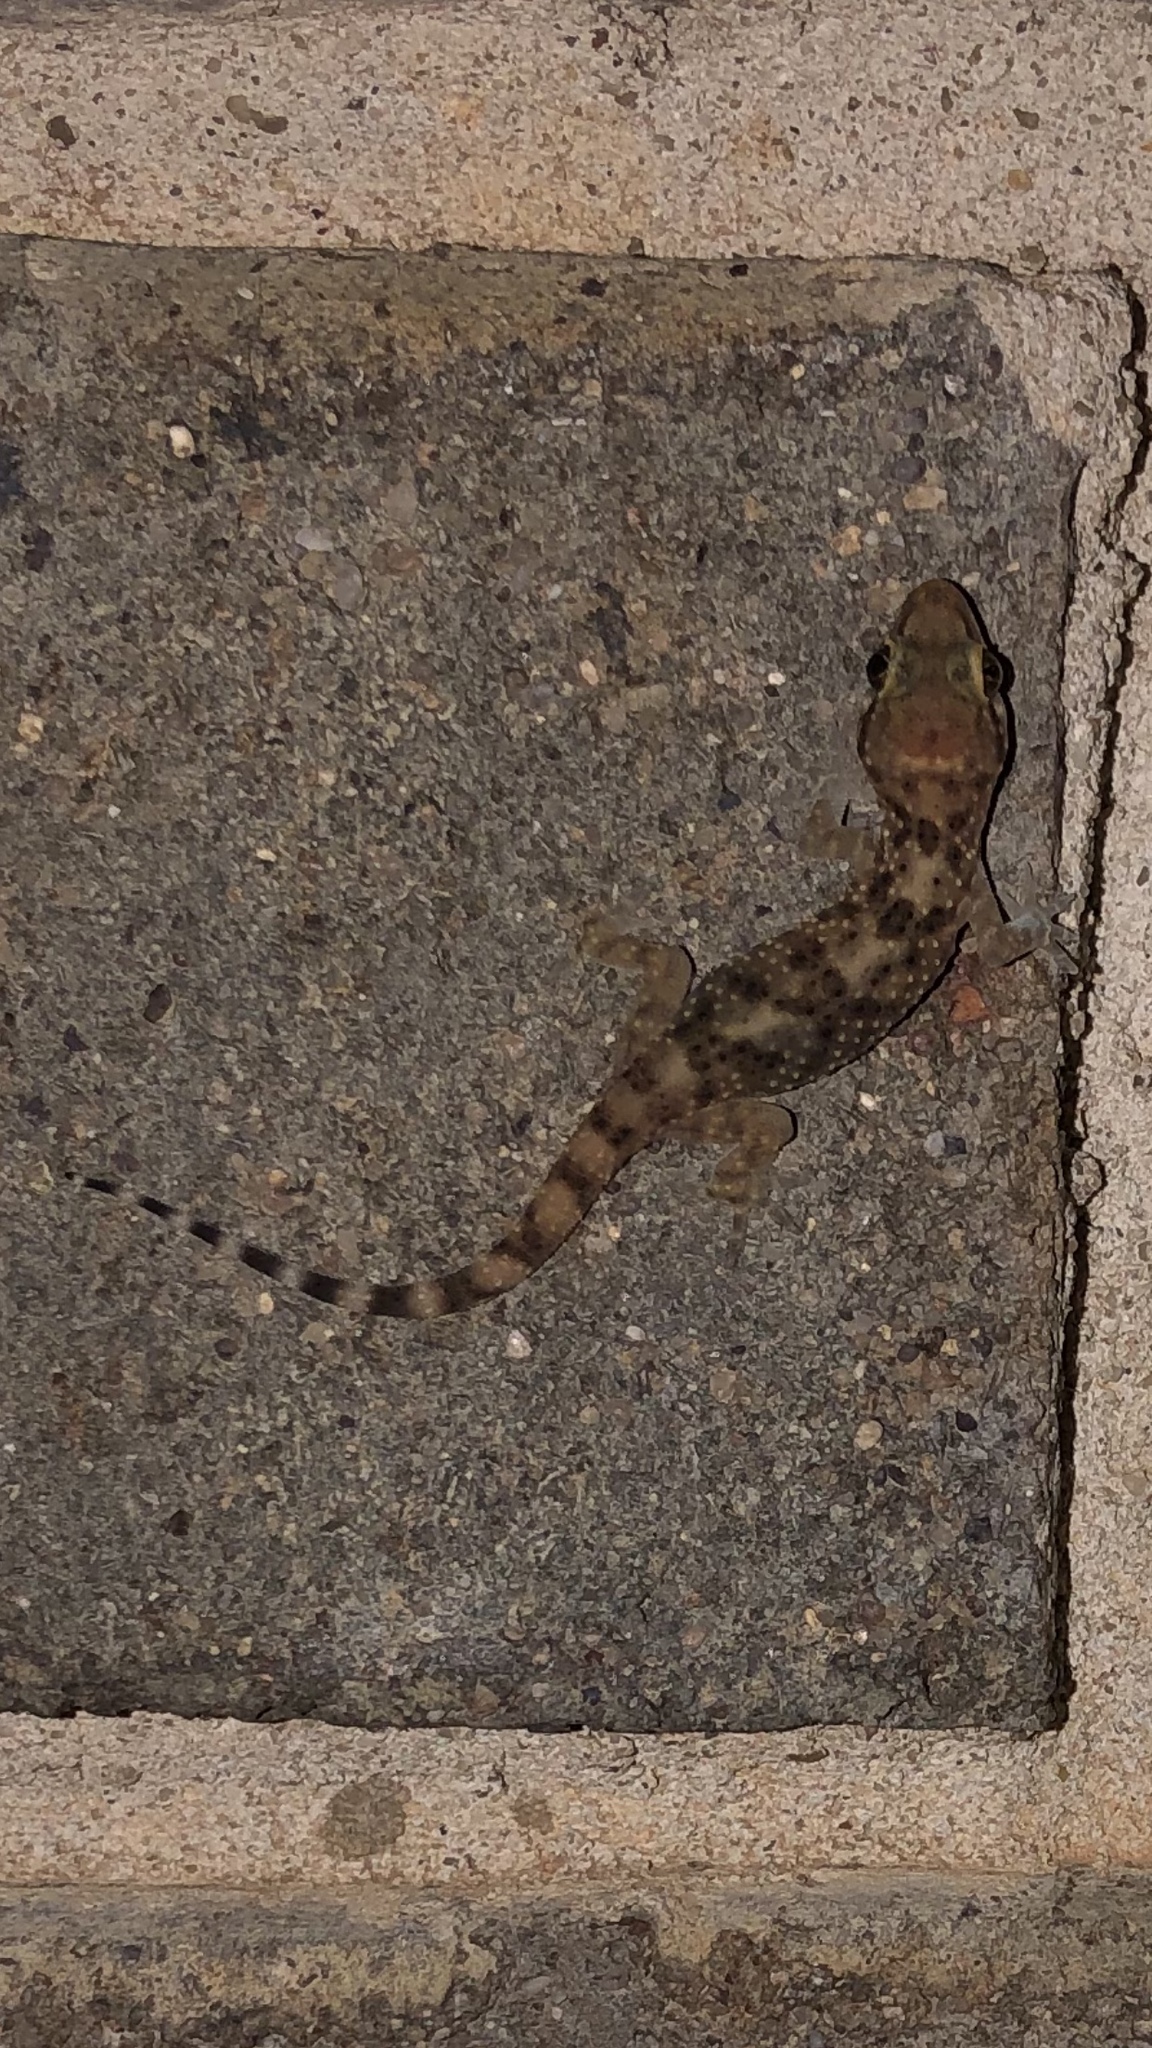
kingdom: Animalia
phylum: Chordata
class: Squamata
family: Gekkonidae
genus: Hemidactylus
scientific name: Hemidactylus turcicus
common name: Turkish gecko
